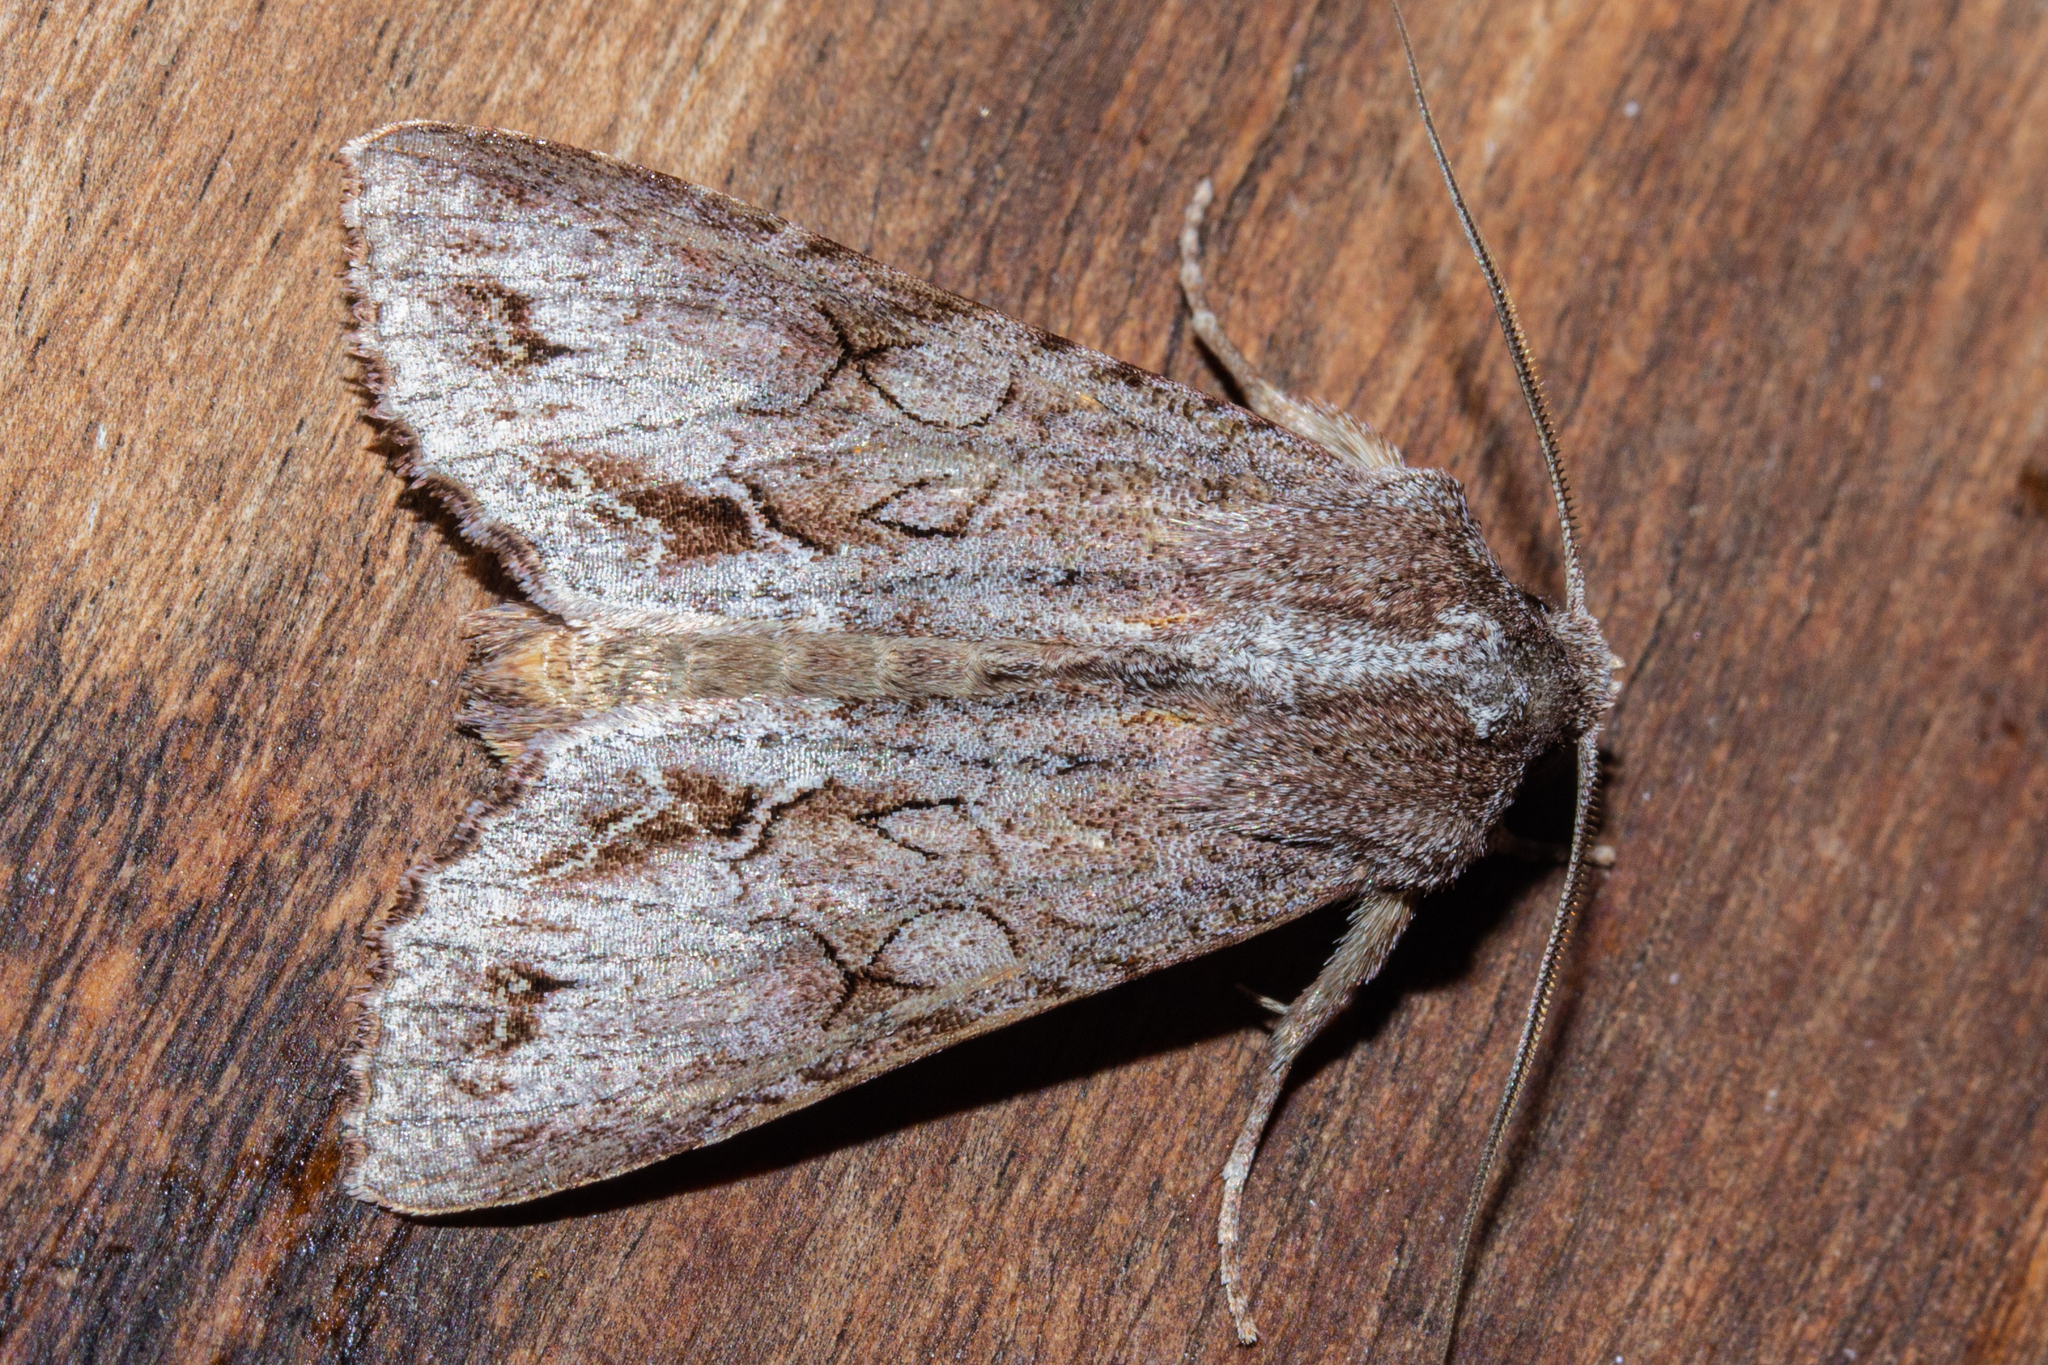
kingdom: Animalia
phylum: Arthropoda
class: Insecta
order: Lepidoptera
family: Noctuidae
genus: Ichneutica
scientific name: Ichneutica
